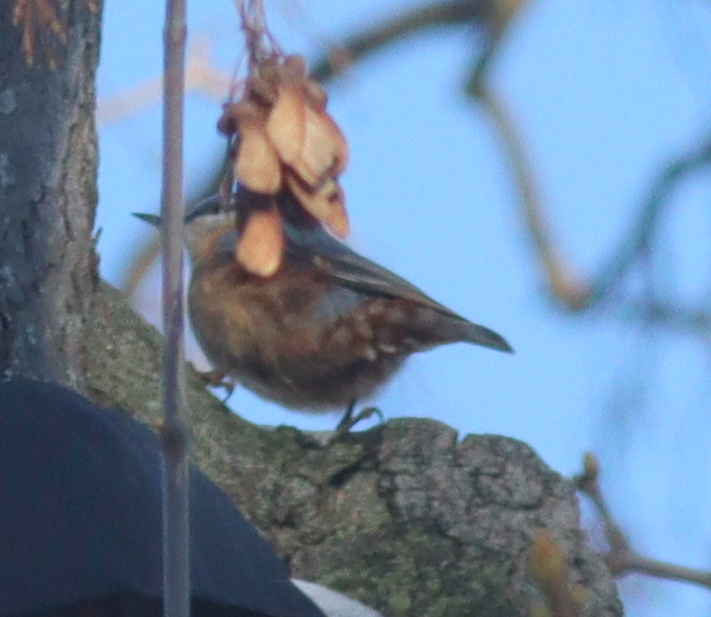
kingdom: Animalia
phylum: Chordata
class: Aves
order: Passeriformes
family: Sittidae
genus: Sitta
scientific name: Sitta europaea
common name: Eurasian nuthatch
